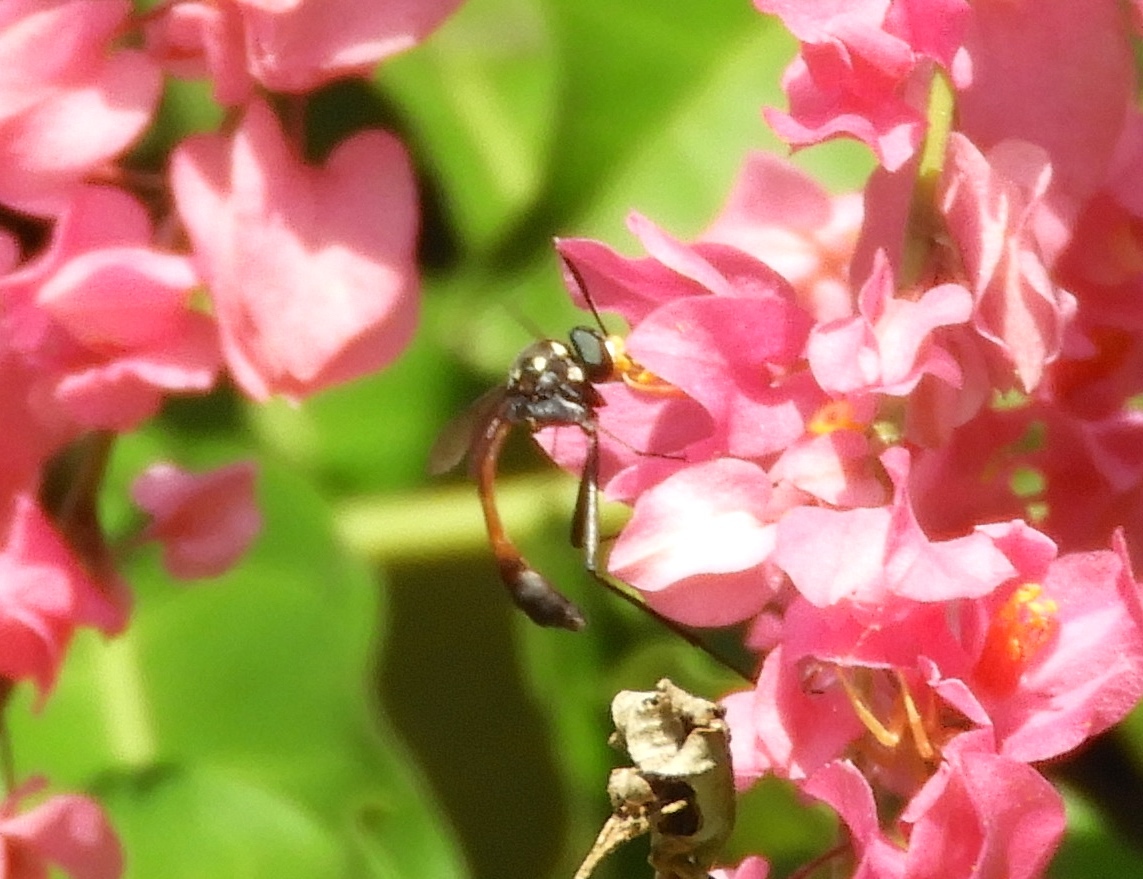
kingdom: Animalia
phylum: Arthropoda
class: Insecta
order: Diptera
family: Bombyliidae
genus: Systropus
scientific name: Systropus
